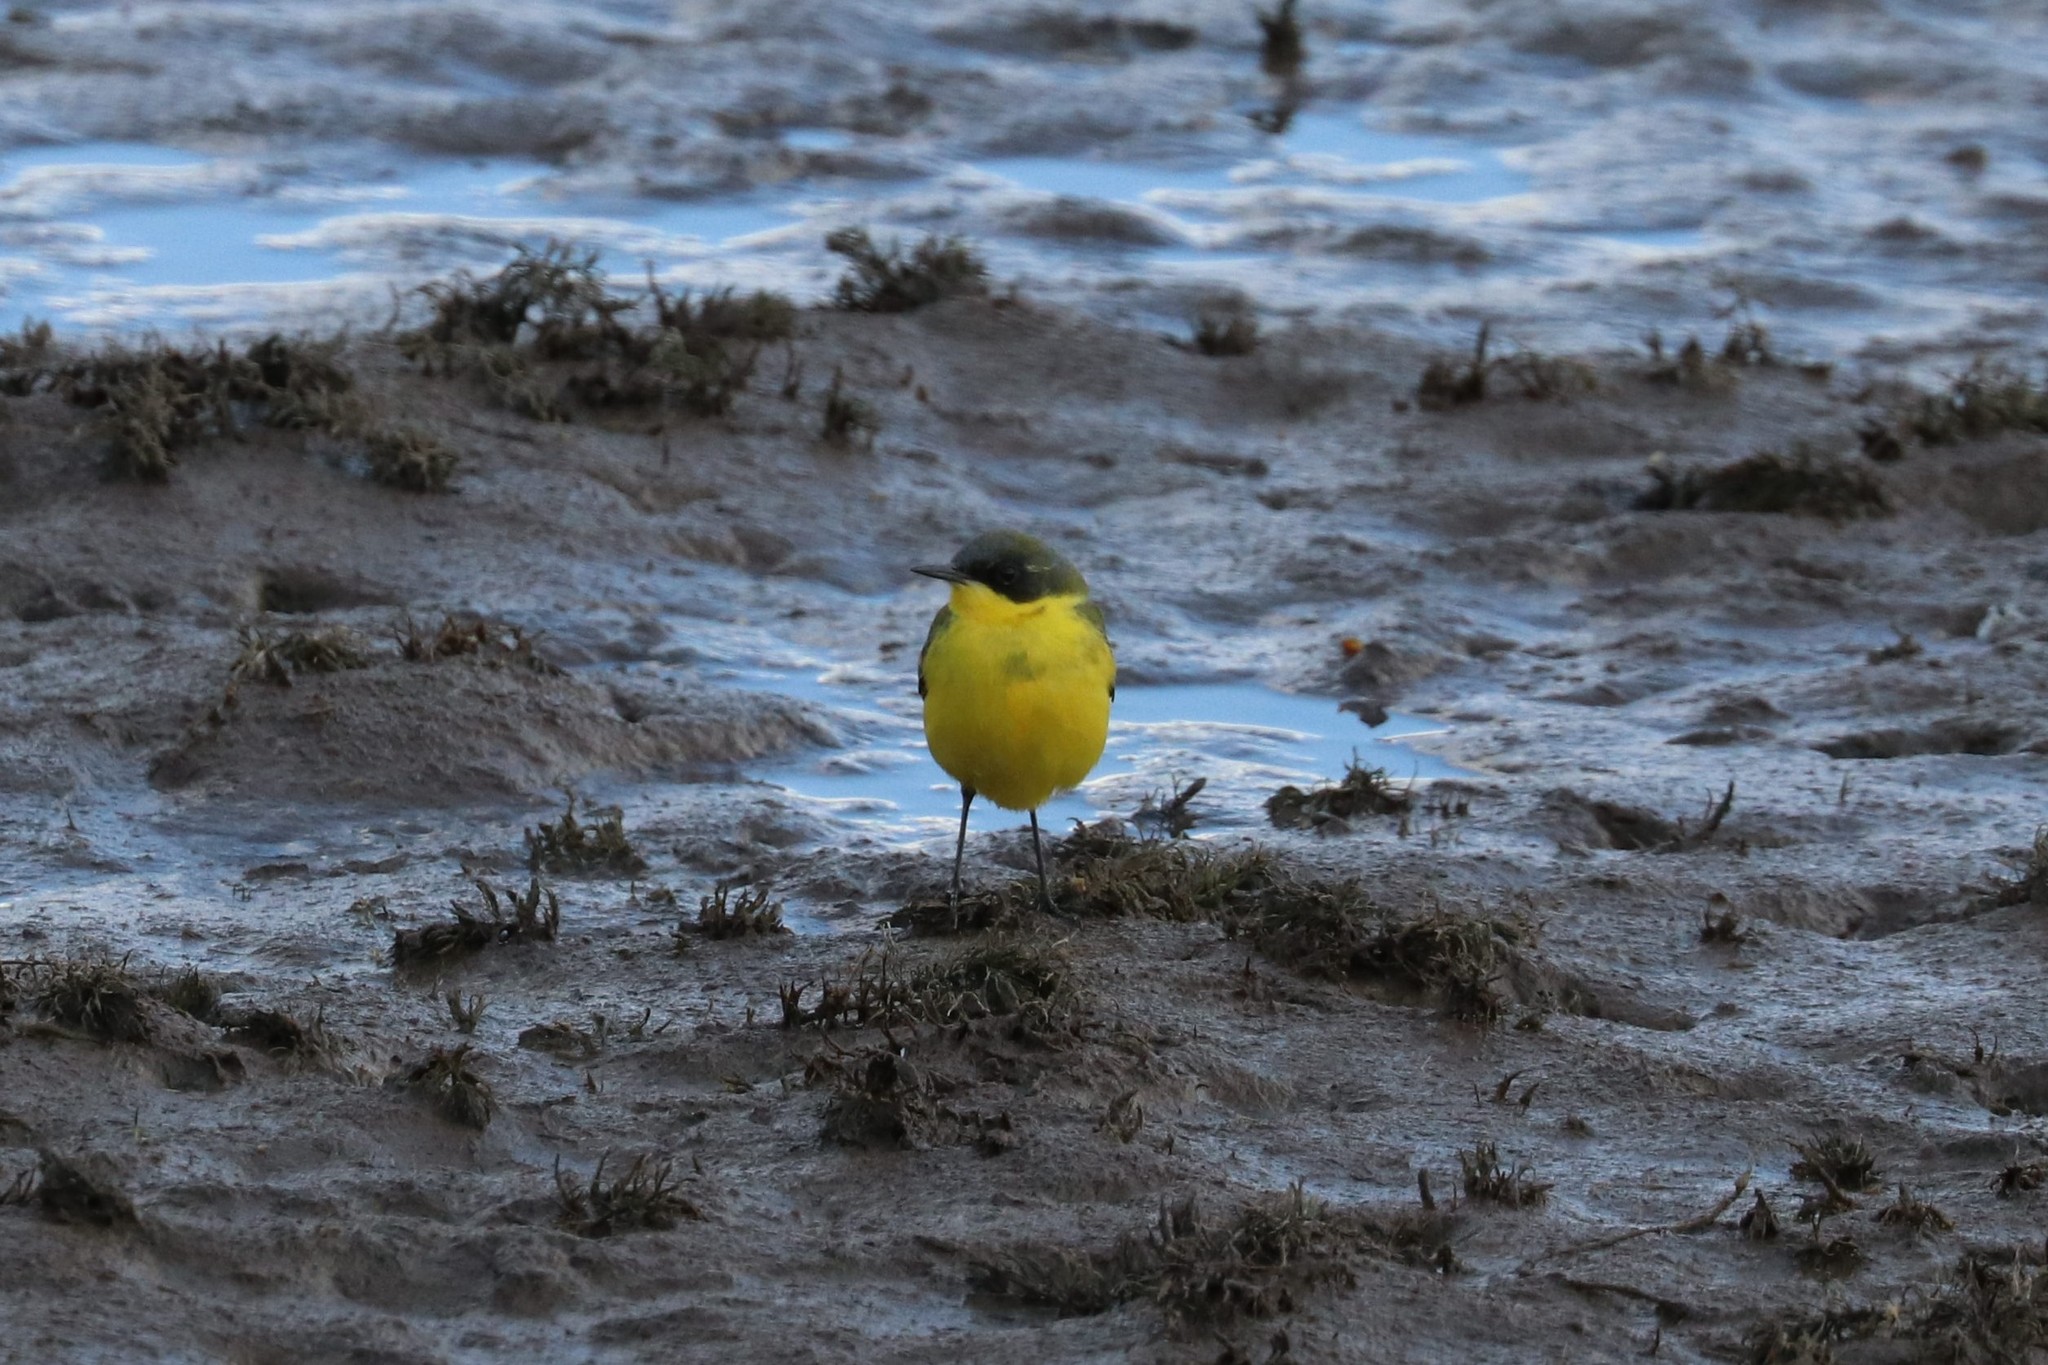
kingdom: Animalia
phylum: Chordata
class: Aves
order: Passeriformes
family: Motacillidae
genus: Motacilla
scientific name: Motacilla flava
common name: Western yellow wagtail
